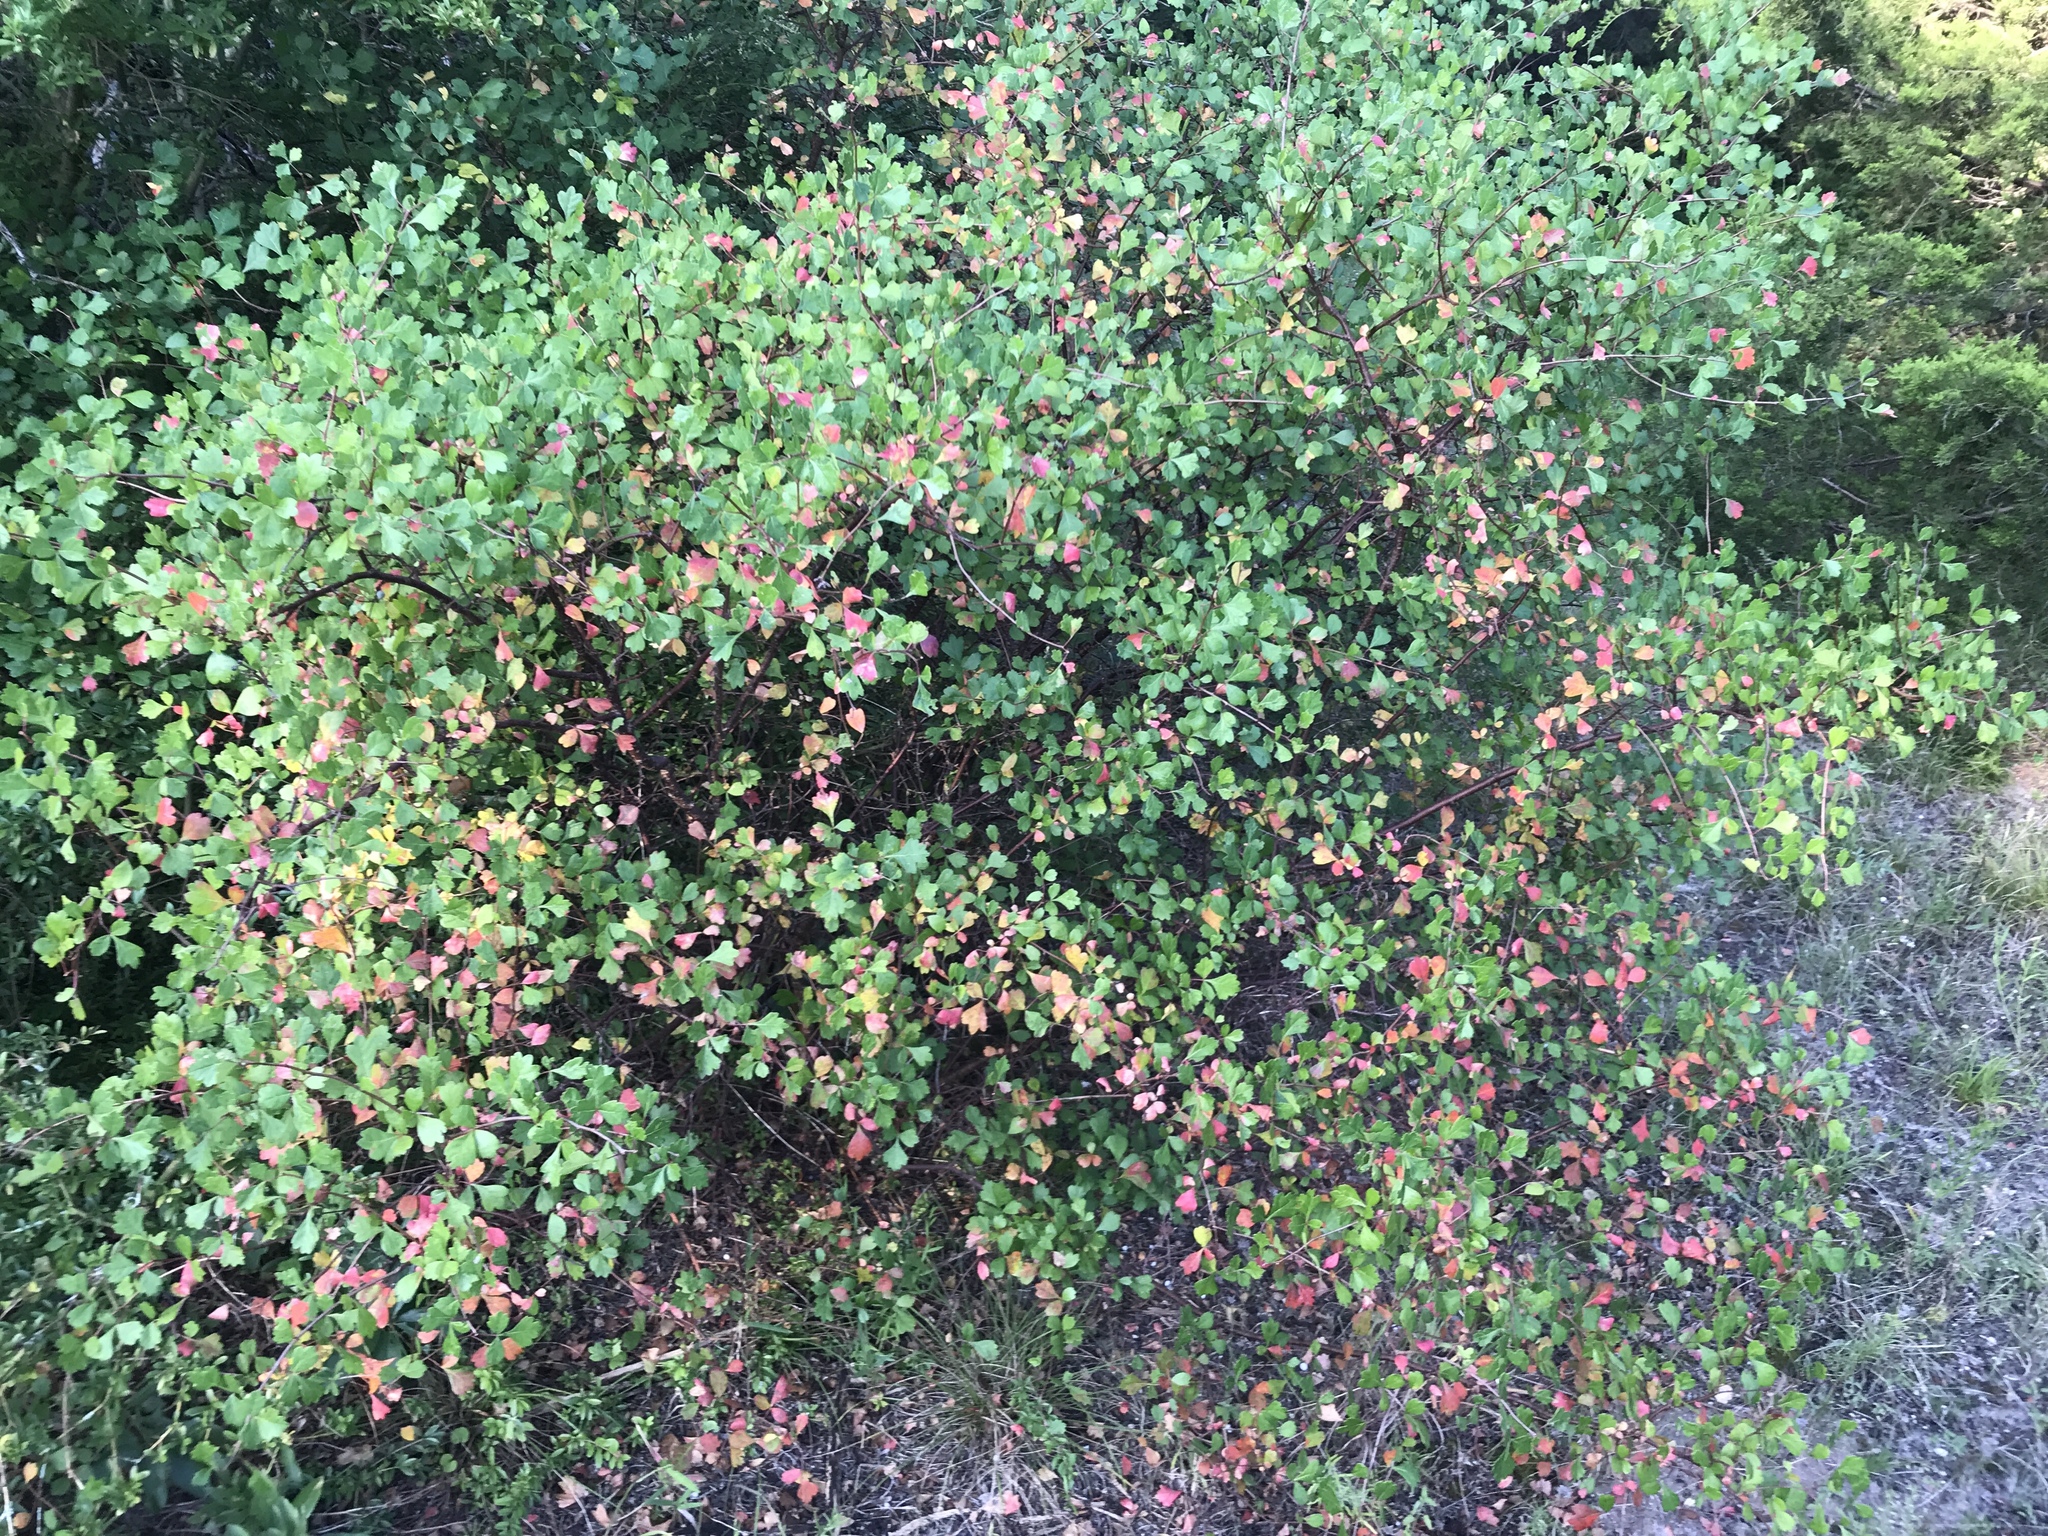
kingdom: Plantae
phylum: Tracheophyta
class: Magnoliopsida
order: Sapindales
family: Anacardiaceae
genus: Rhus
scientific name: Rhus aromatica
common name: Aromatic sumac
